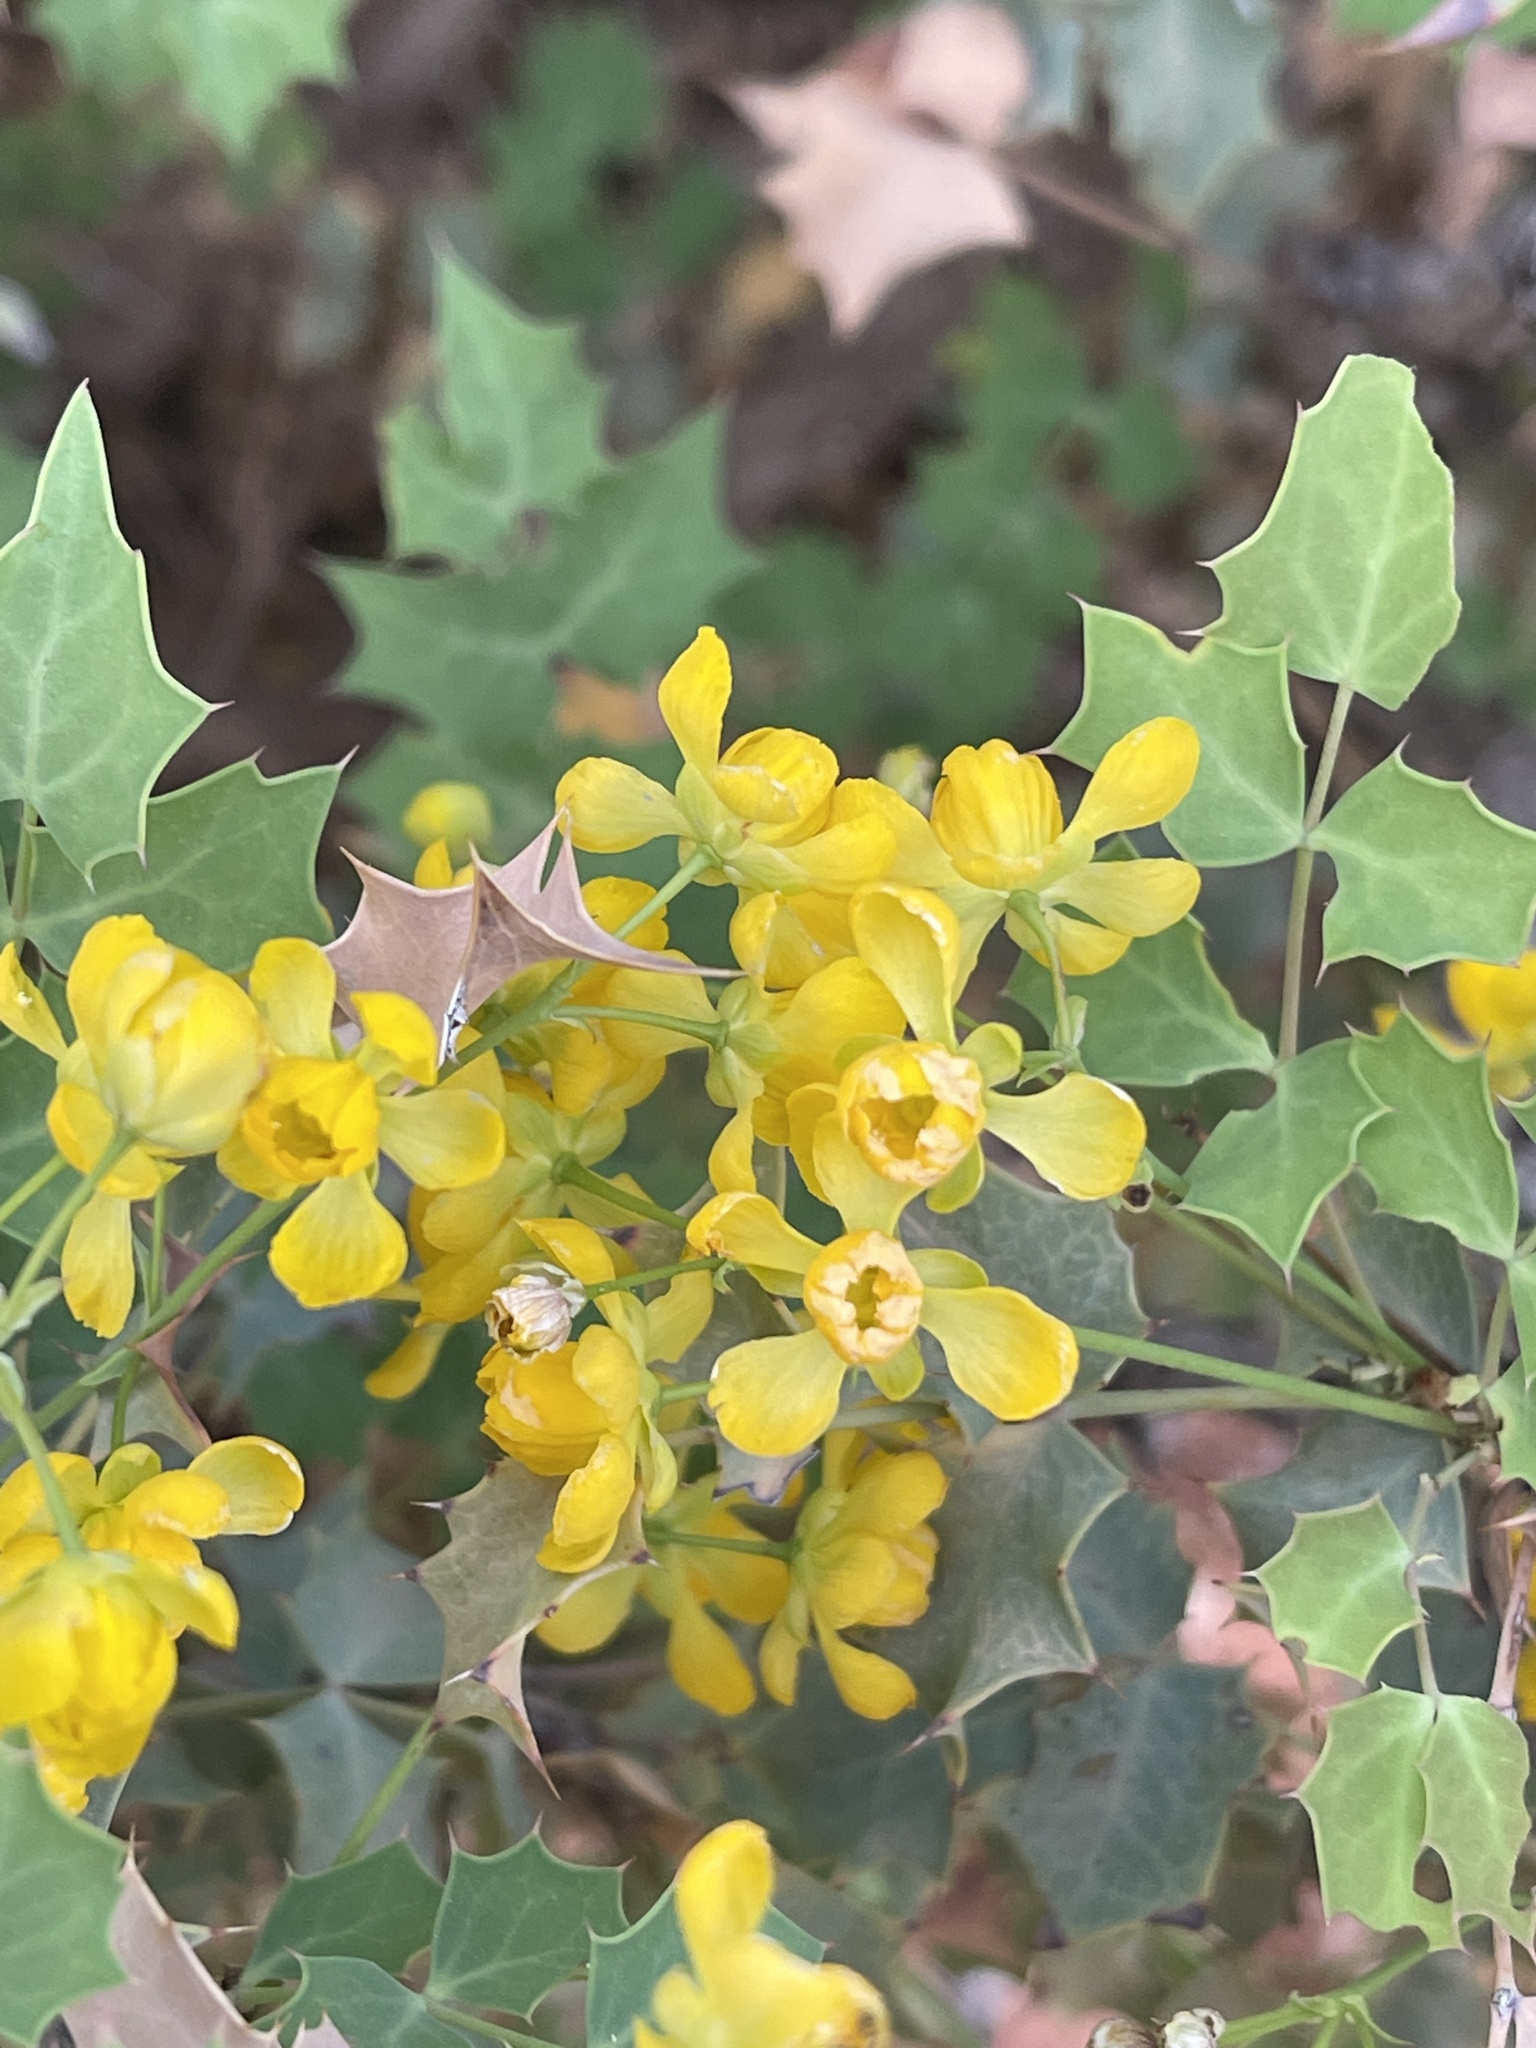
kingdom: Plantae
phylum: Tracheophyta
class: Magnoliopsida
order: Ranunculales
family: Berberidaceae
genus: Alloberberis
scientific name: Alloberberis fremontii
